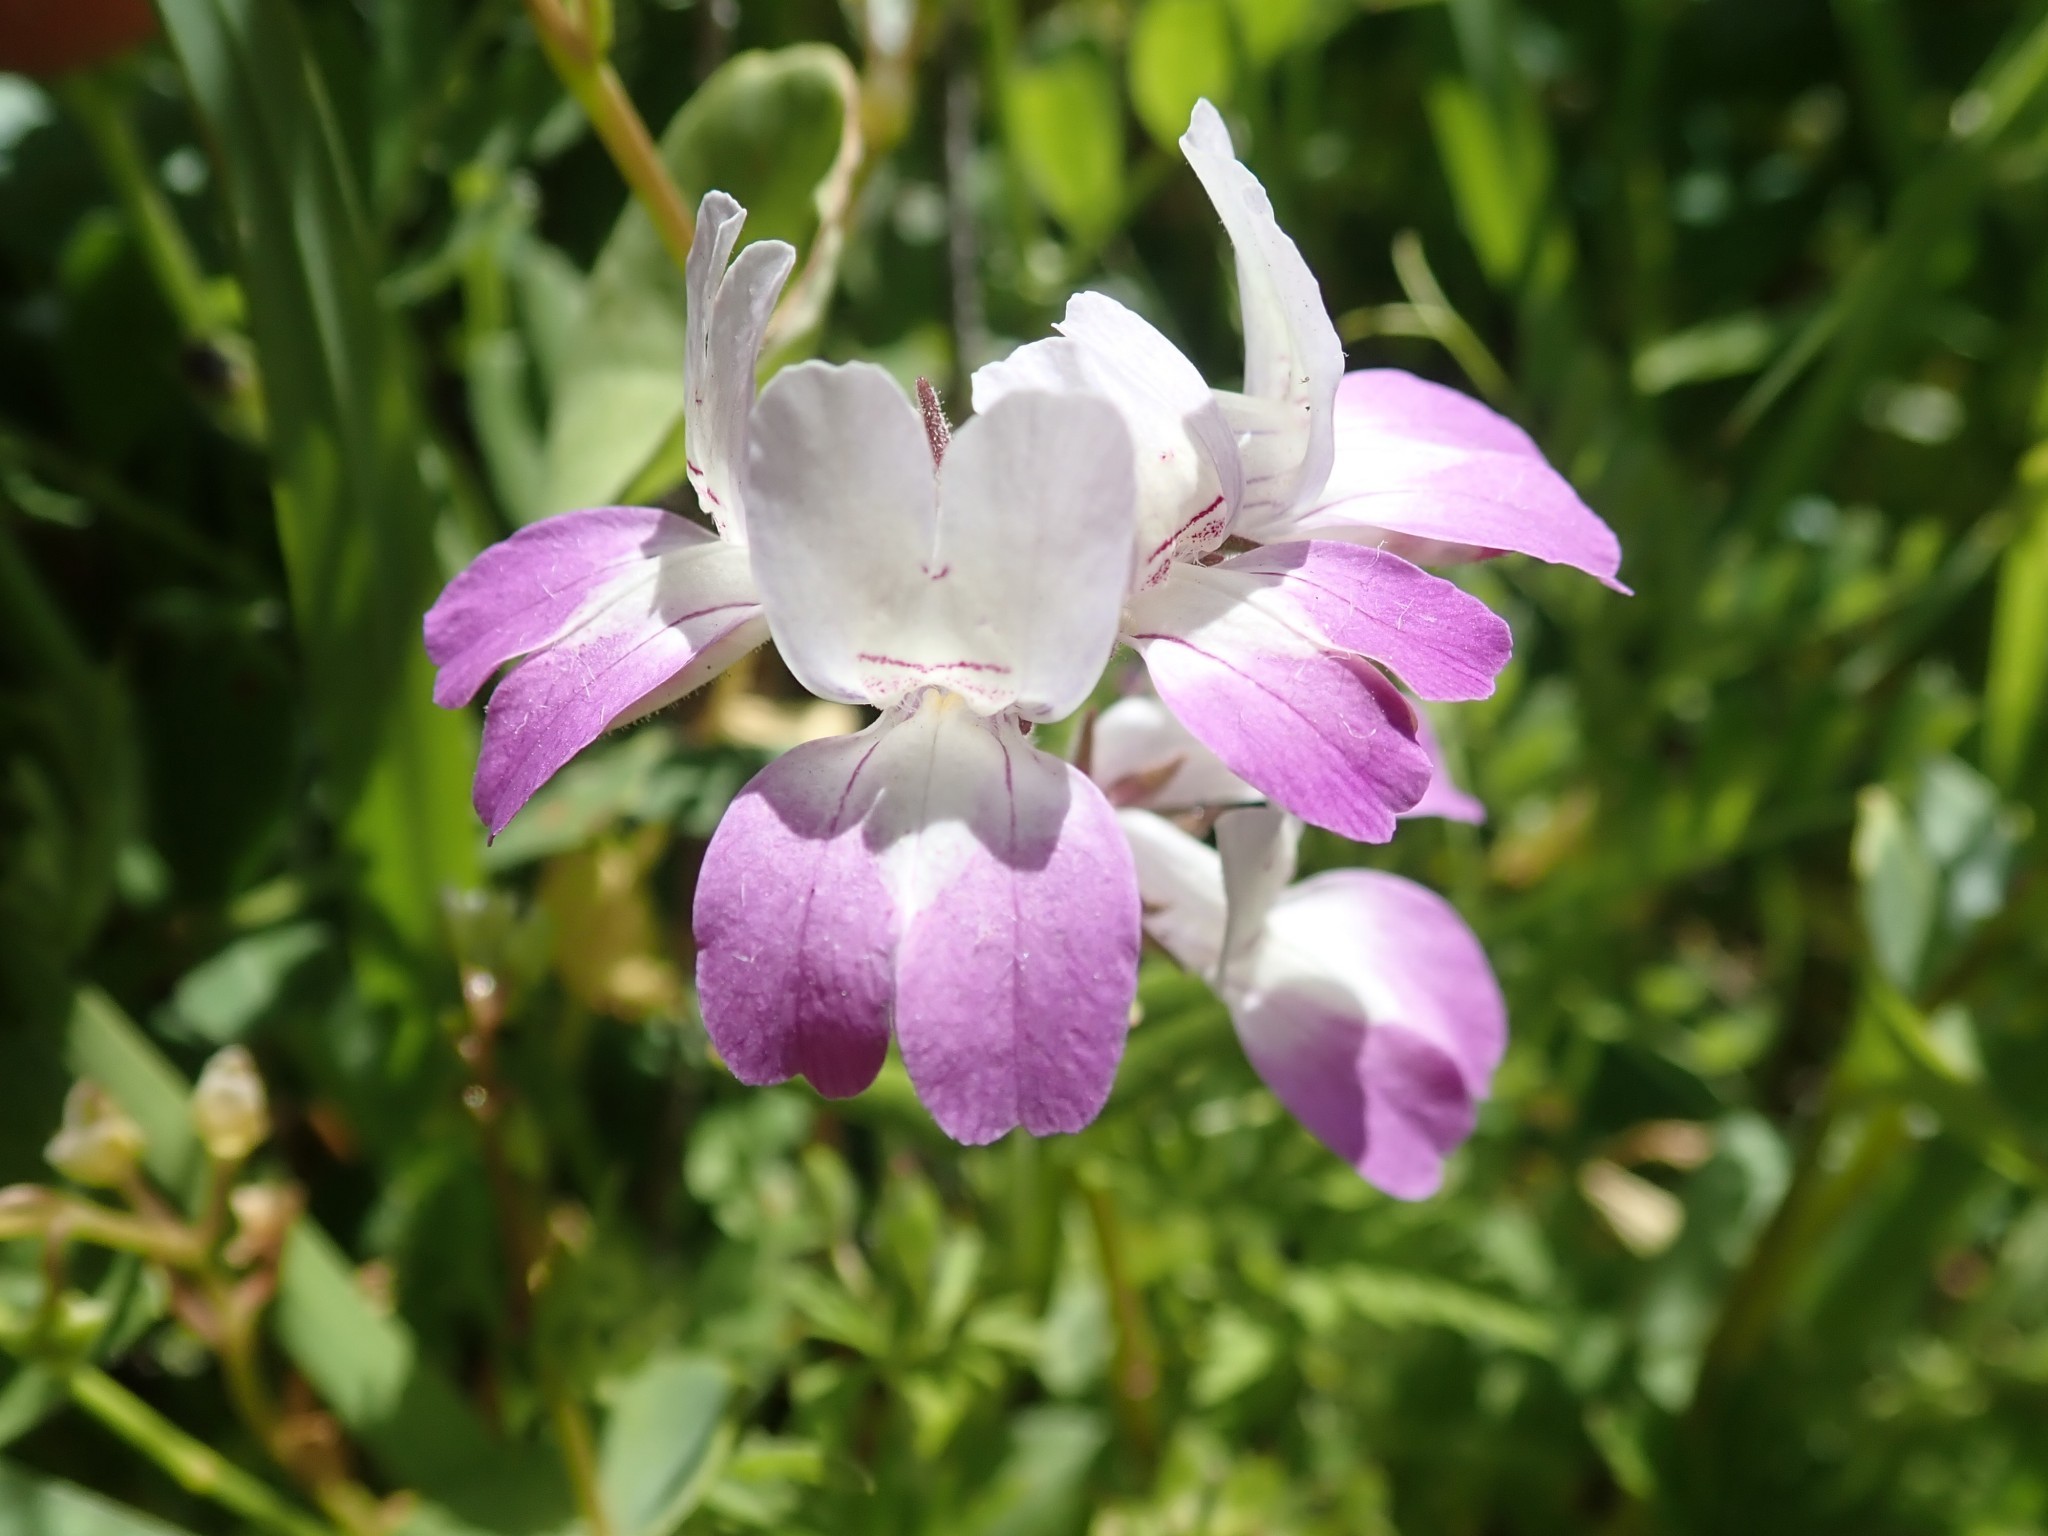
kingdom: Plantae
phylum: Tracheophyta
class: Magnoliopsida
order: Lamiales
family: Plantaginaceae
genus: Collinsia
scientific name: Collinsia heterophylla
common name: Chinese-houses
